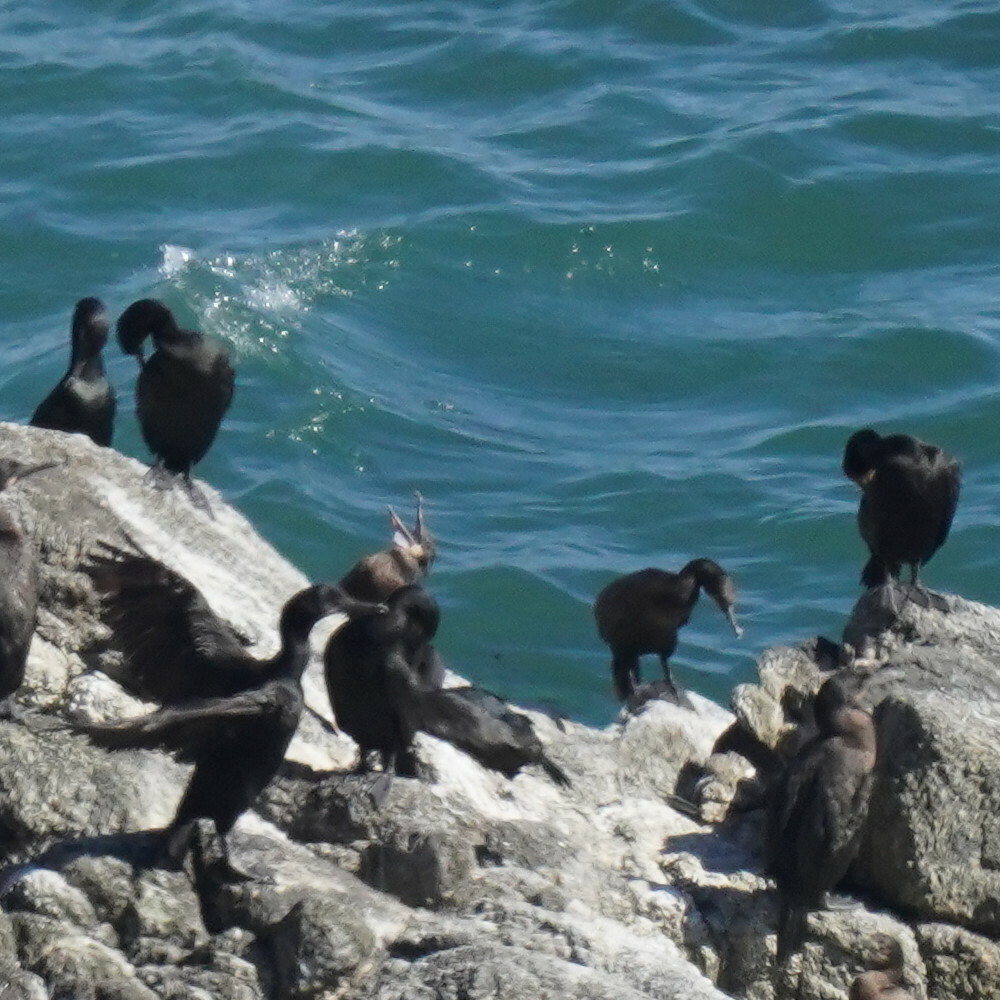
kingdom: Animalia
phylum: Chordata
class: Aves
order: Suliformes
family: Phalacrocoracidae
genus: Urile
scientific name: Urile penicillatus
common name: Brandt's cormorant
